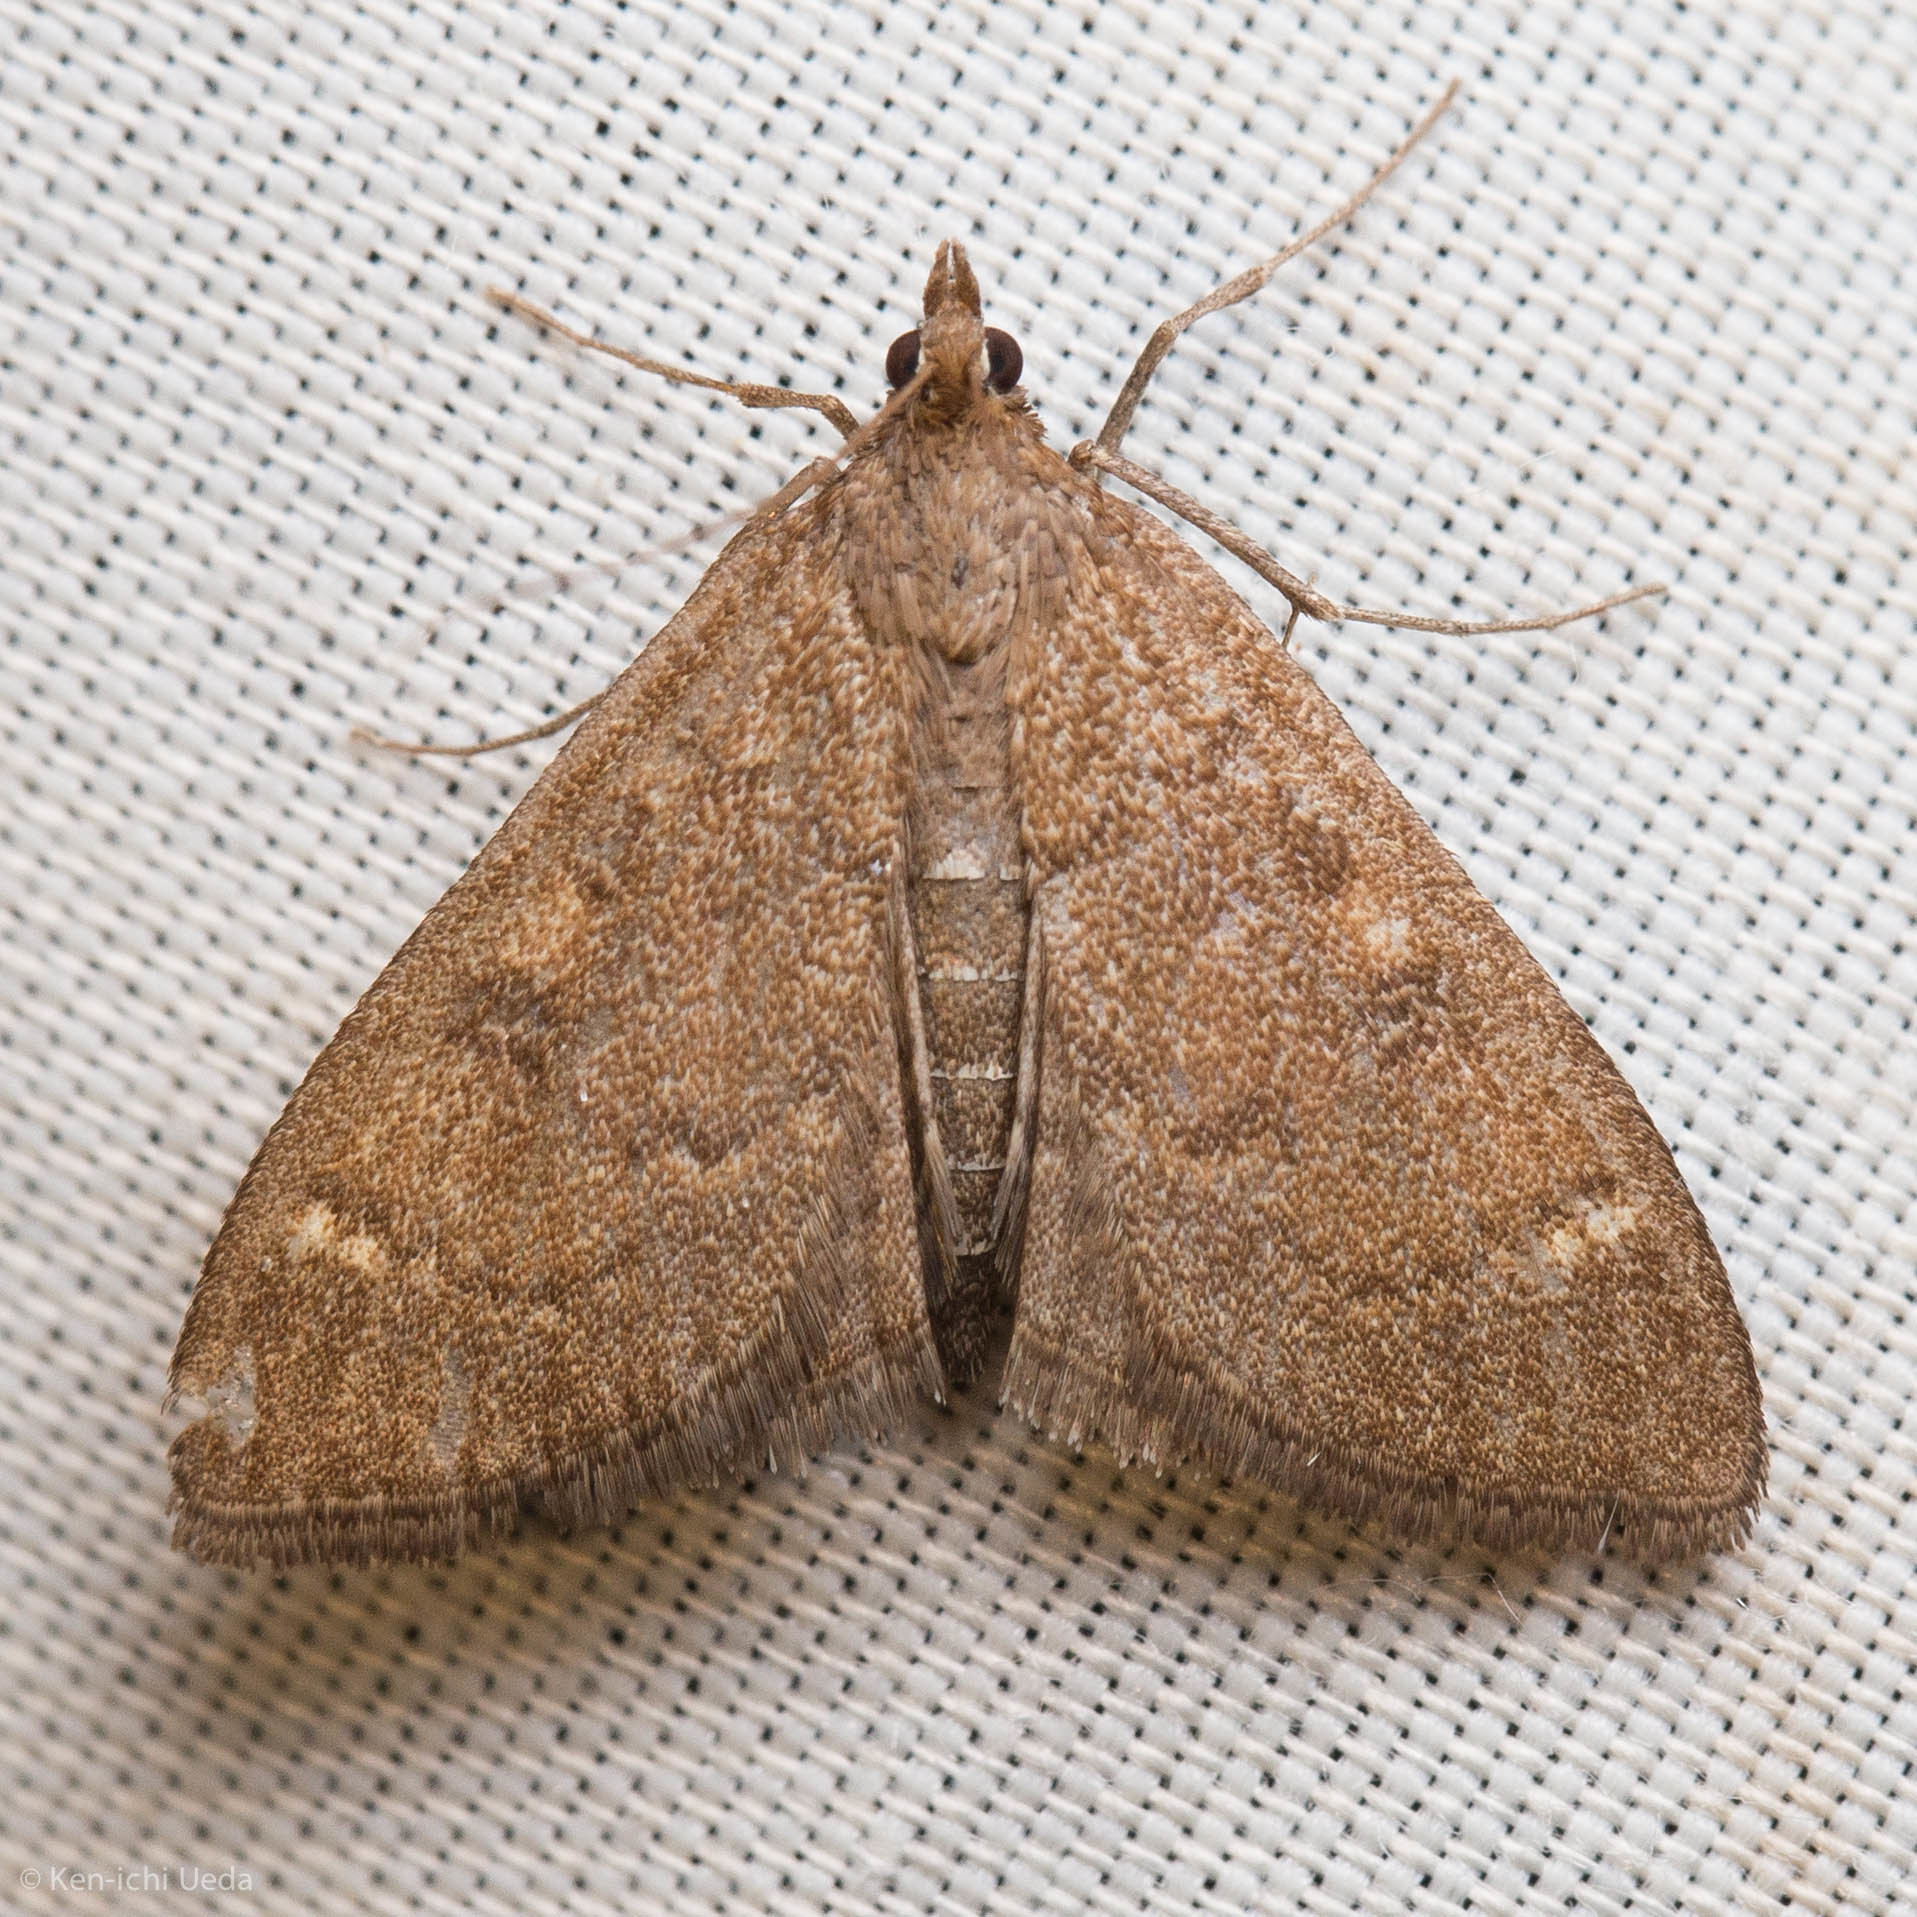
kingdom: Animalia
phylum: Arthropoda
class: Insecta
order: Lepidoptera
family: Crambidae
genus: Mecyna
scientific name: Mecyna mustelinalis
